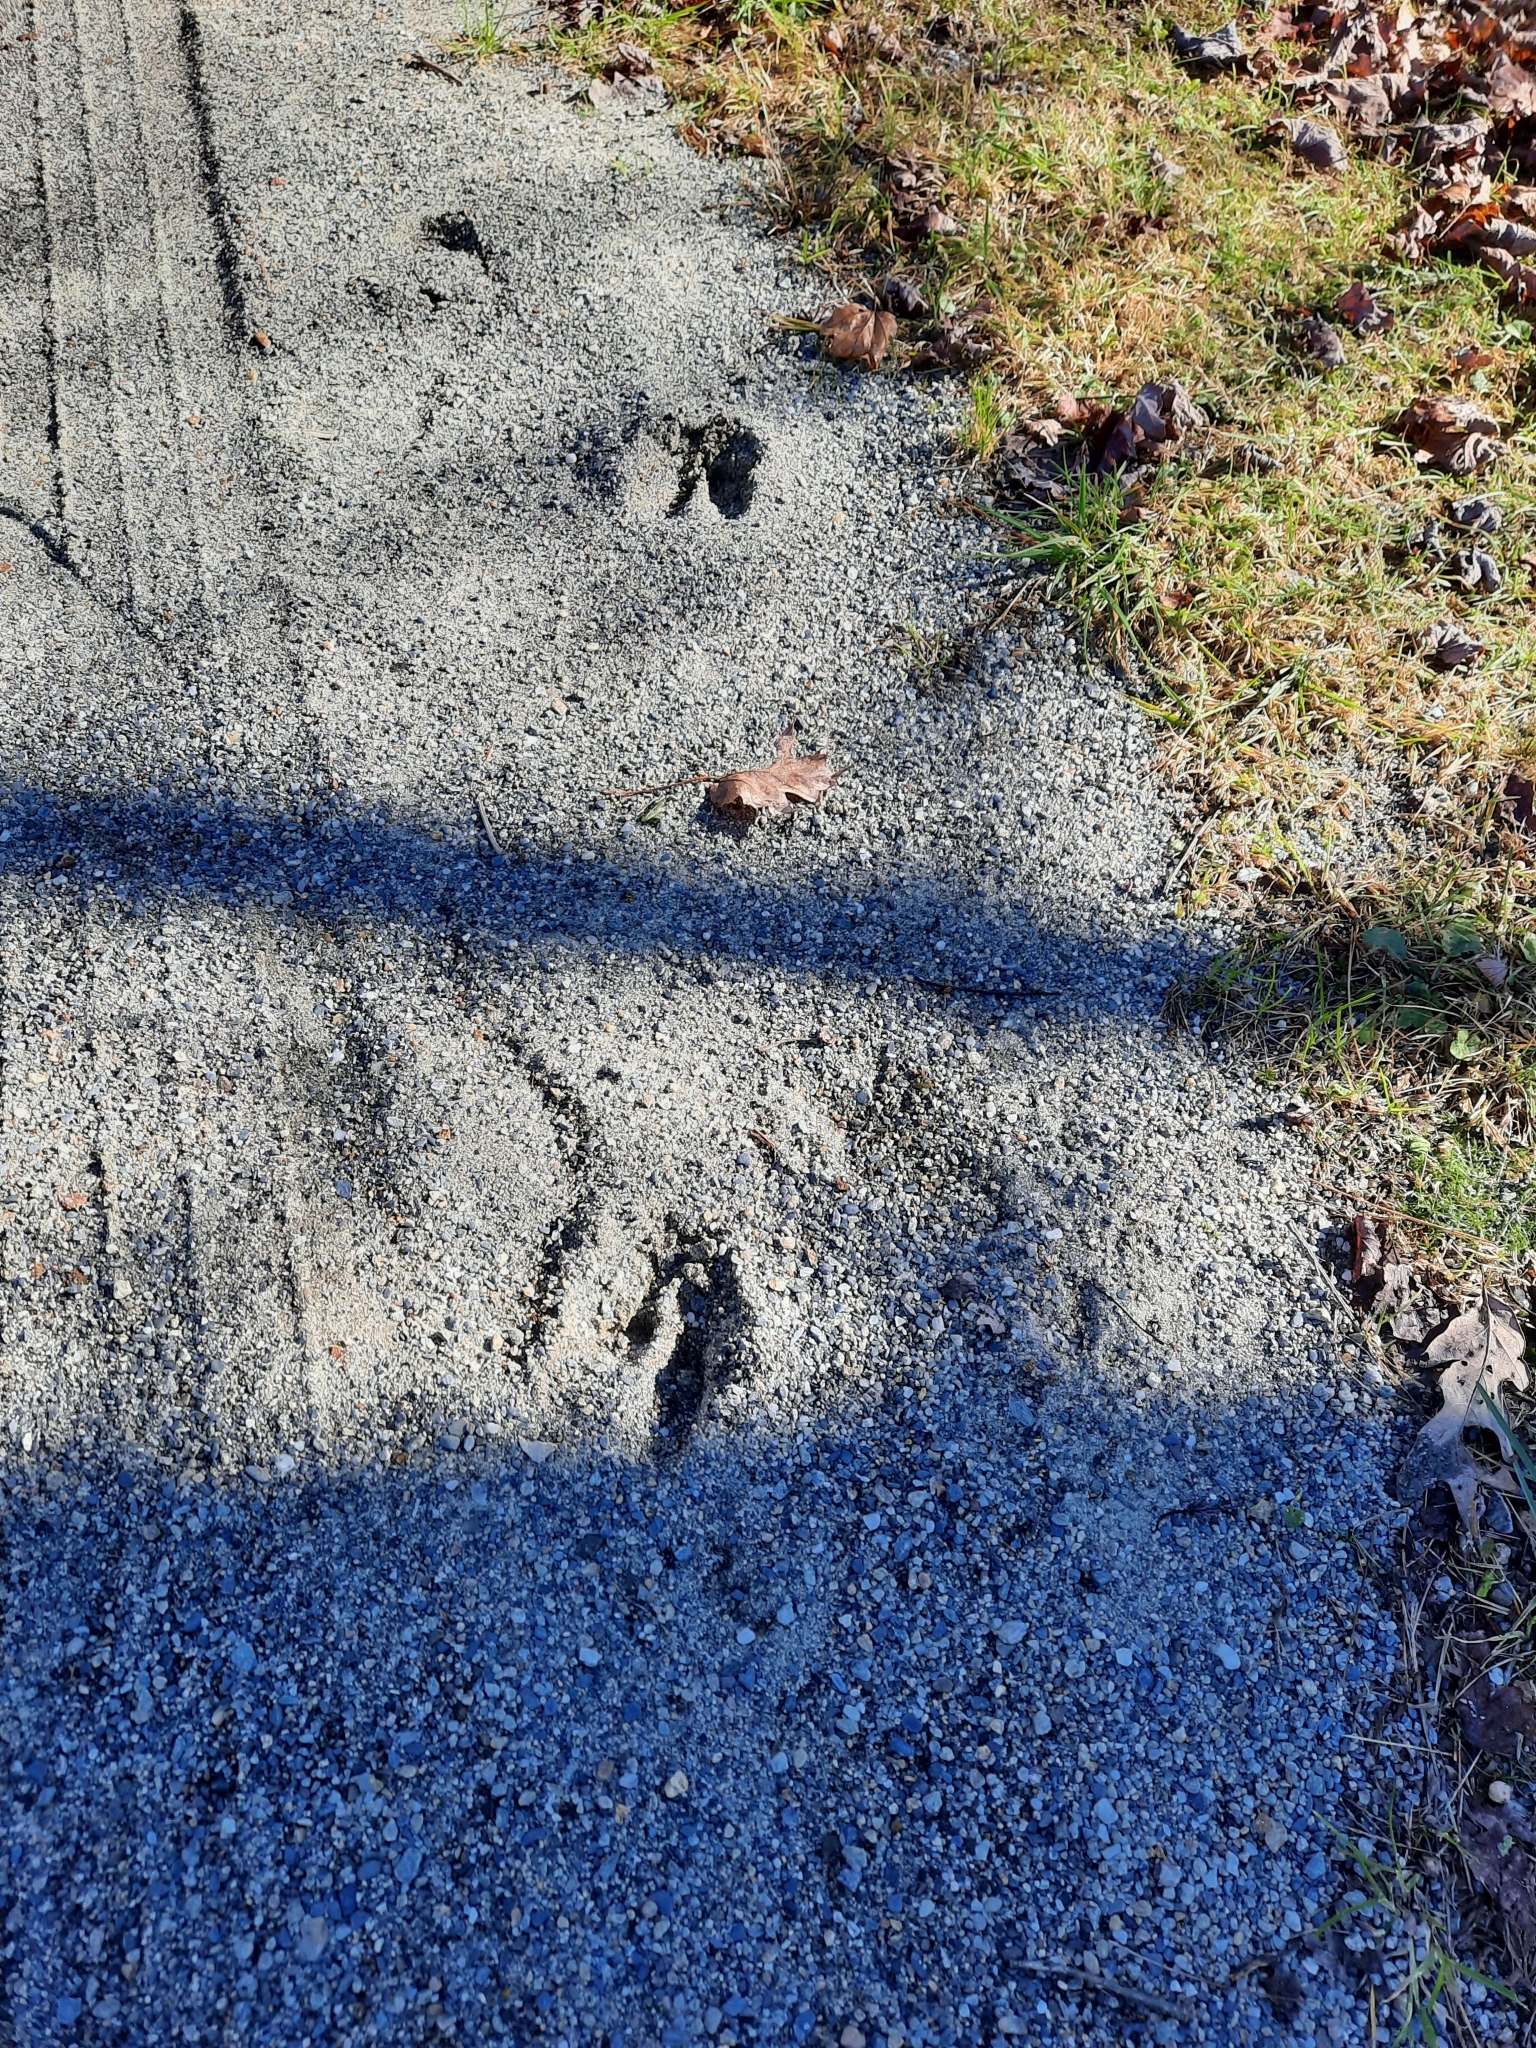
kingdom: Animalia
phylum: Chordata
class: Mammalia
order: Artiodactyla
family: Cervidae
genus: Odocoileus
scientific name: Odocoileus virginianus
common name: White-tailed deer
